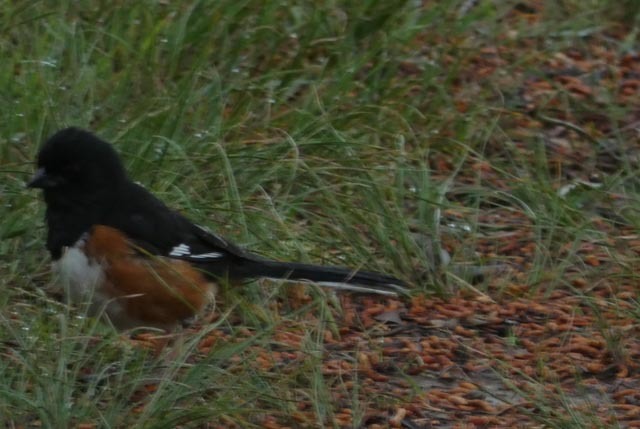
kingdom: Animalia
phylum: Chordata
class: Aves
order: Passeriformes
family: Passerellidae
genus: Pipilo
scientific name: Pipilo erythrophthalmus
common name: Eastern towhee
